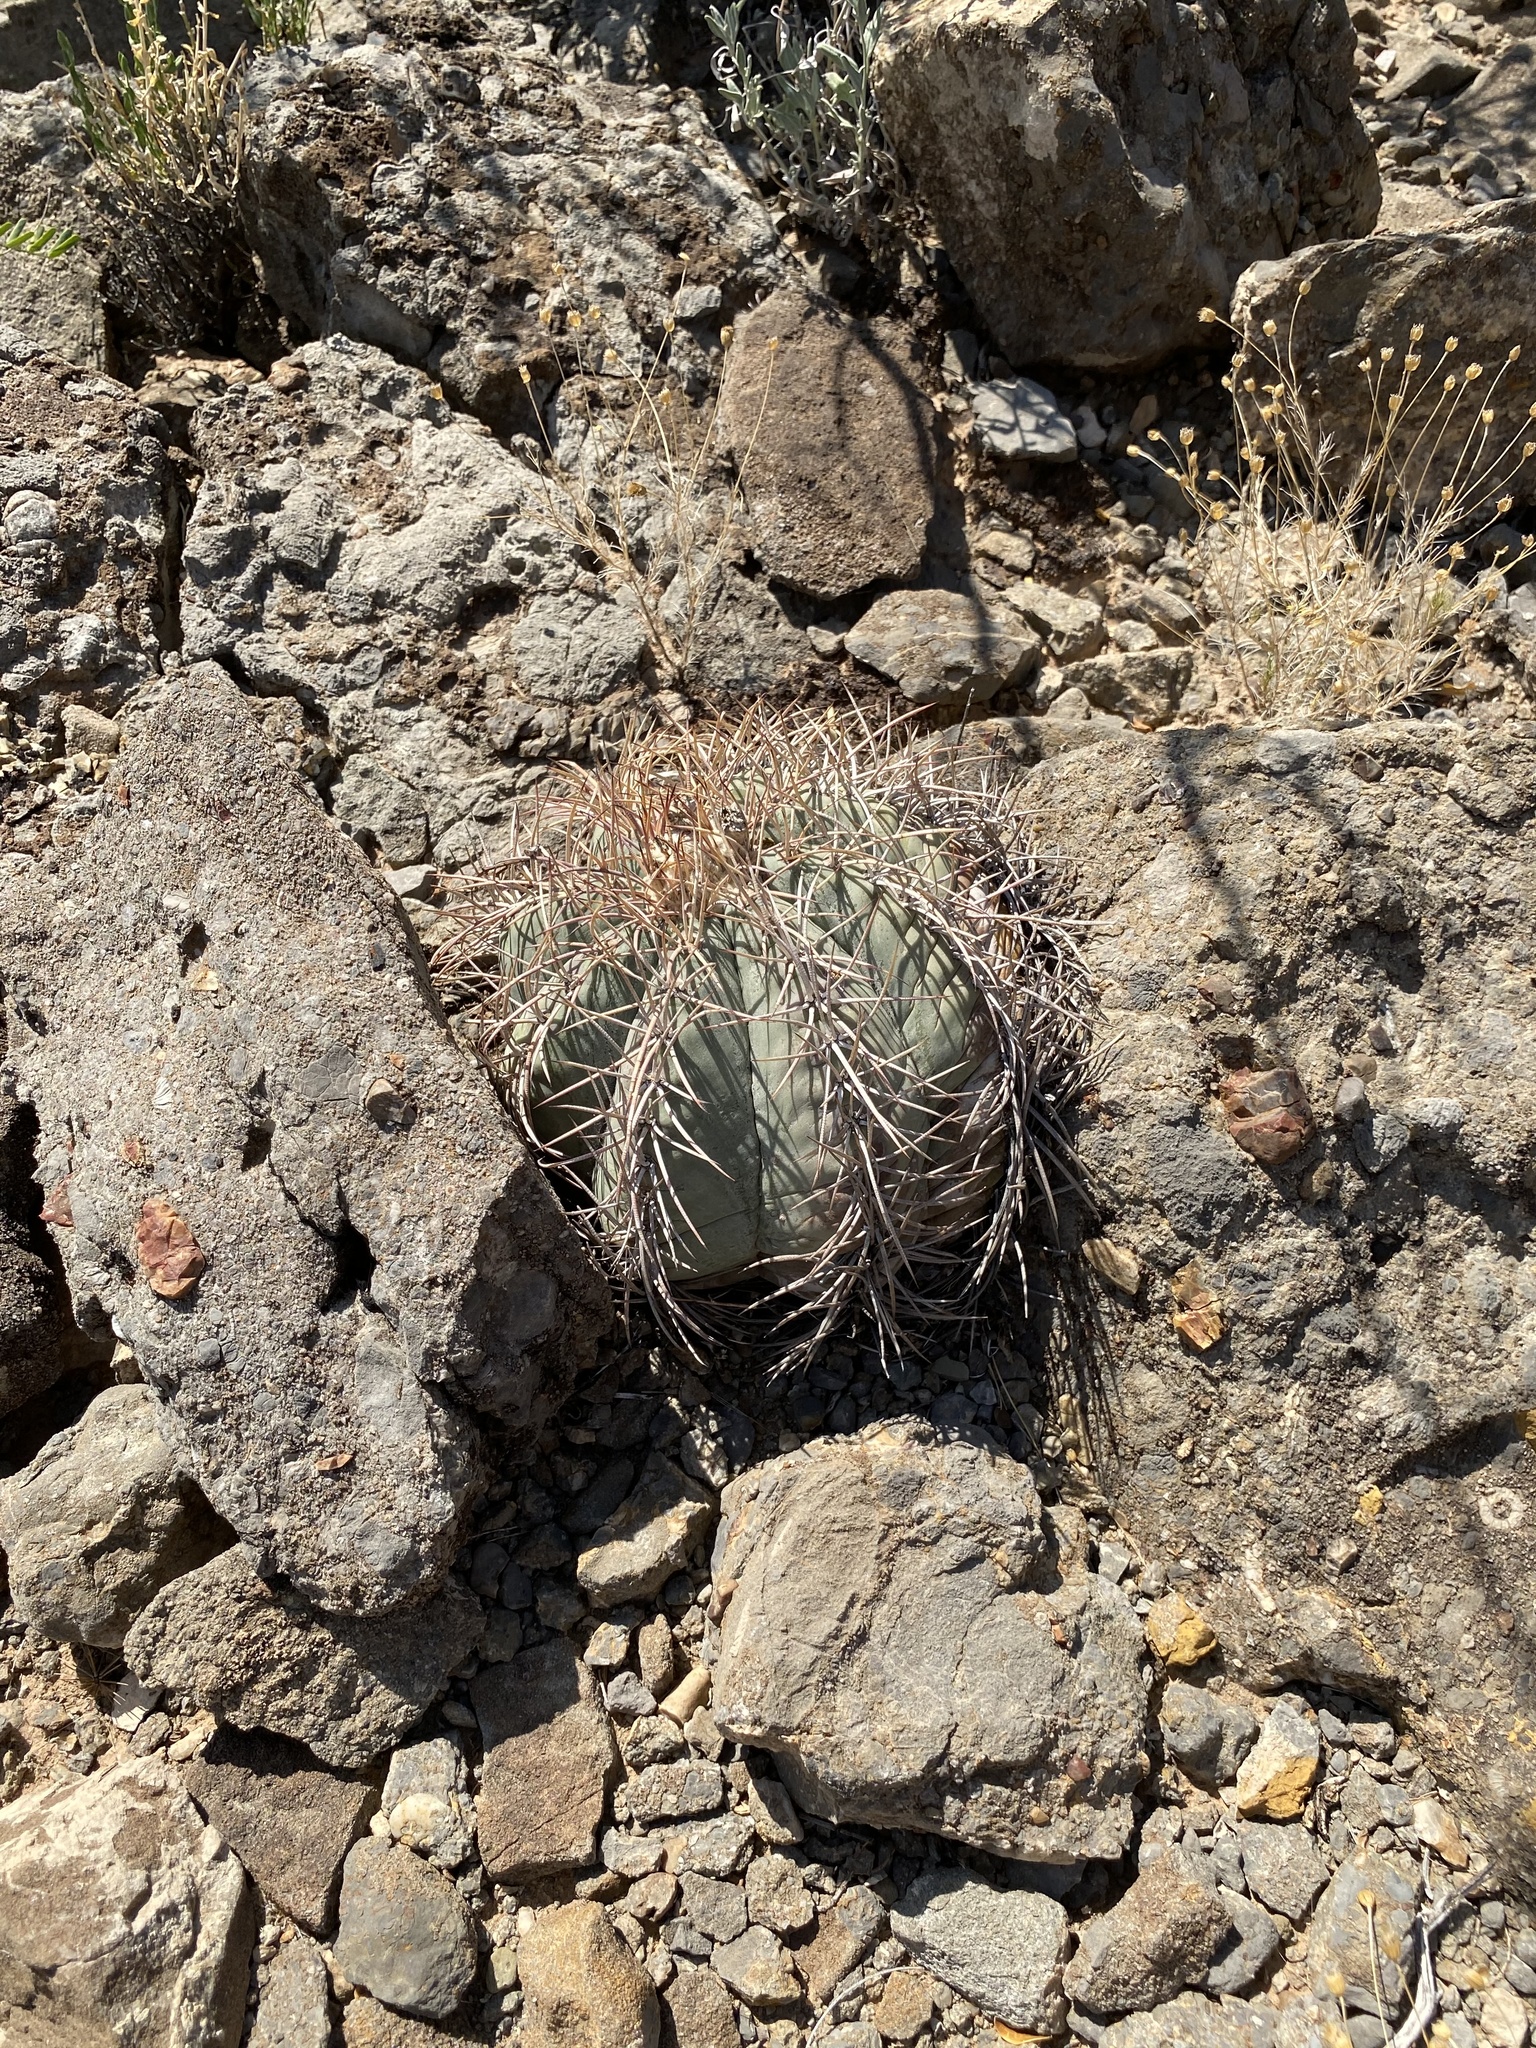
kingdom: Plantae
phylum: Tracheophyta
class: Magnoliopsida
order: Caryophyllales
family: Cactaceae
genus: Echinocactus
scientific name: Echinocactus horizonthalonius
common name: Devilshead
